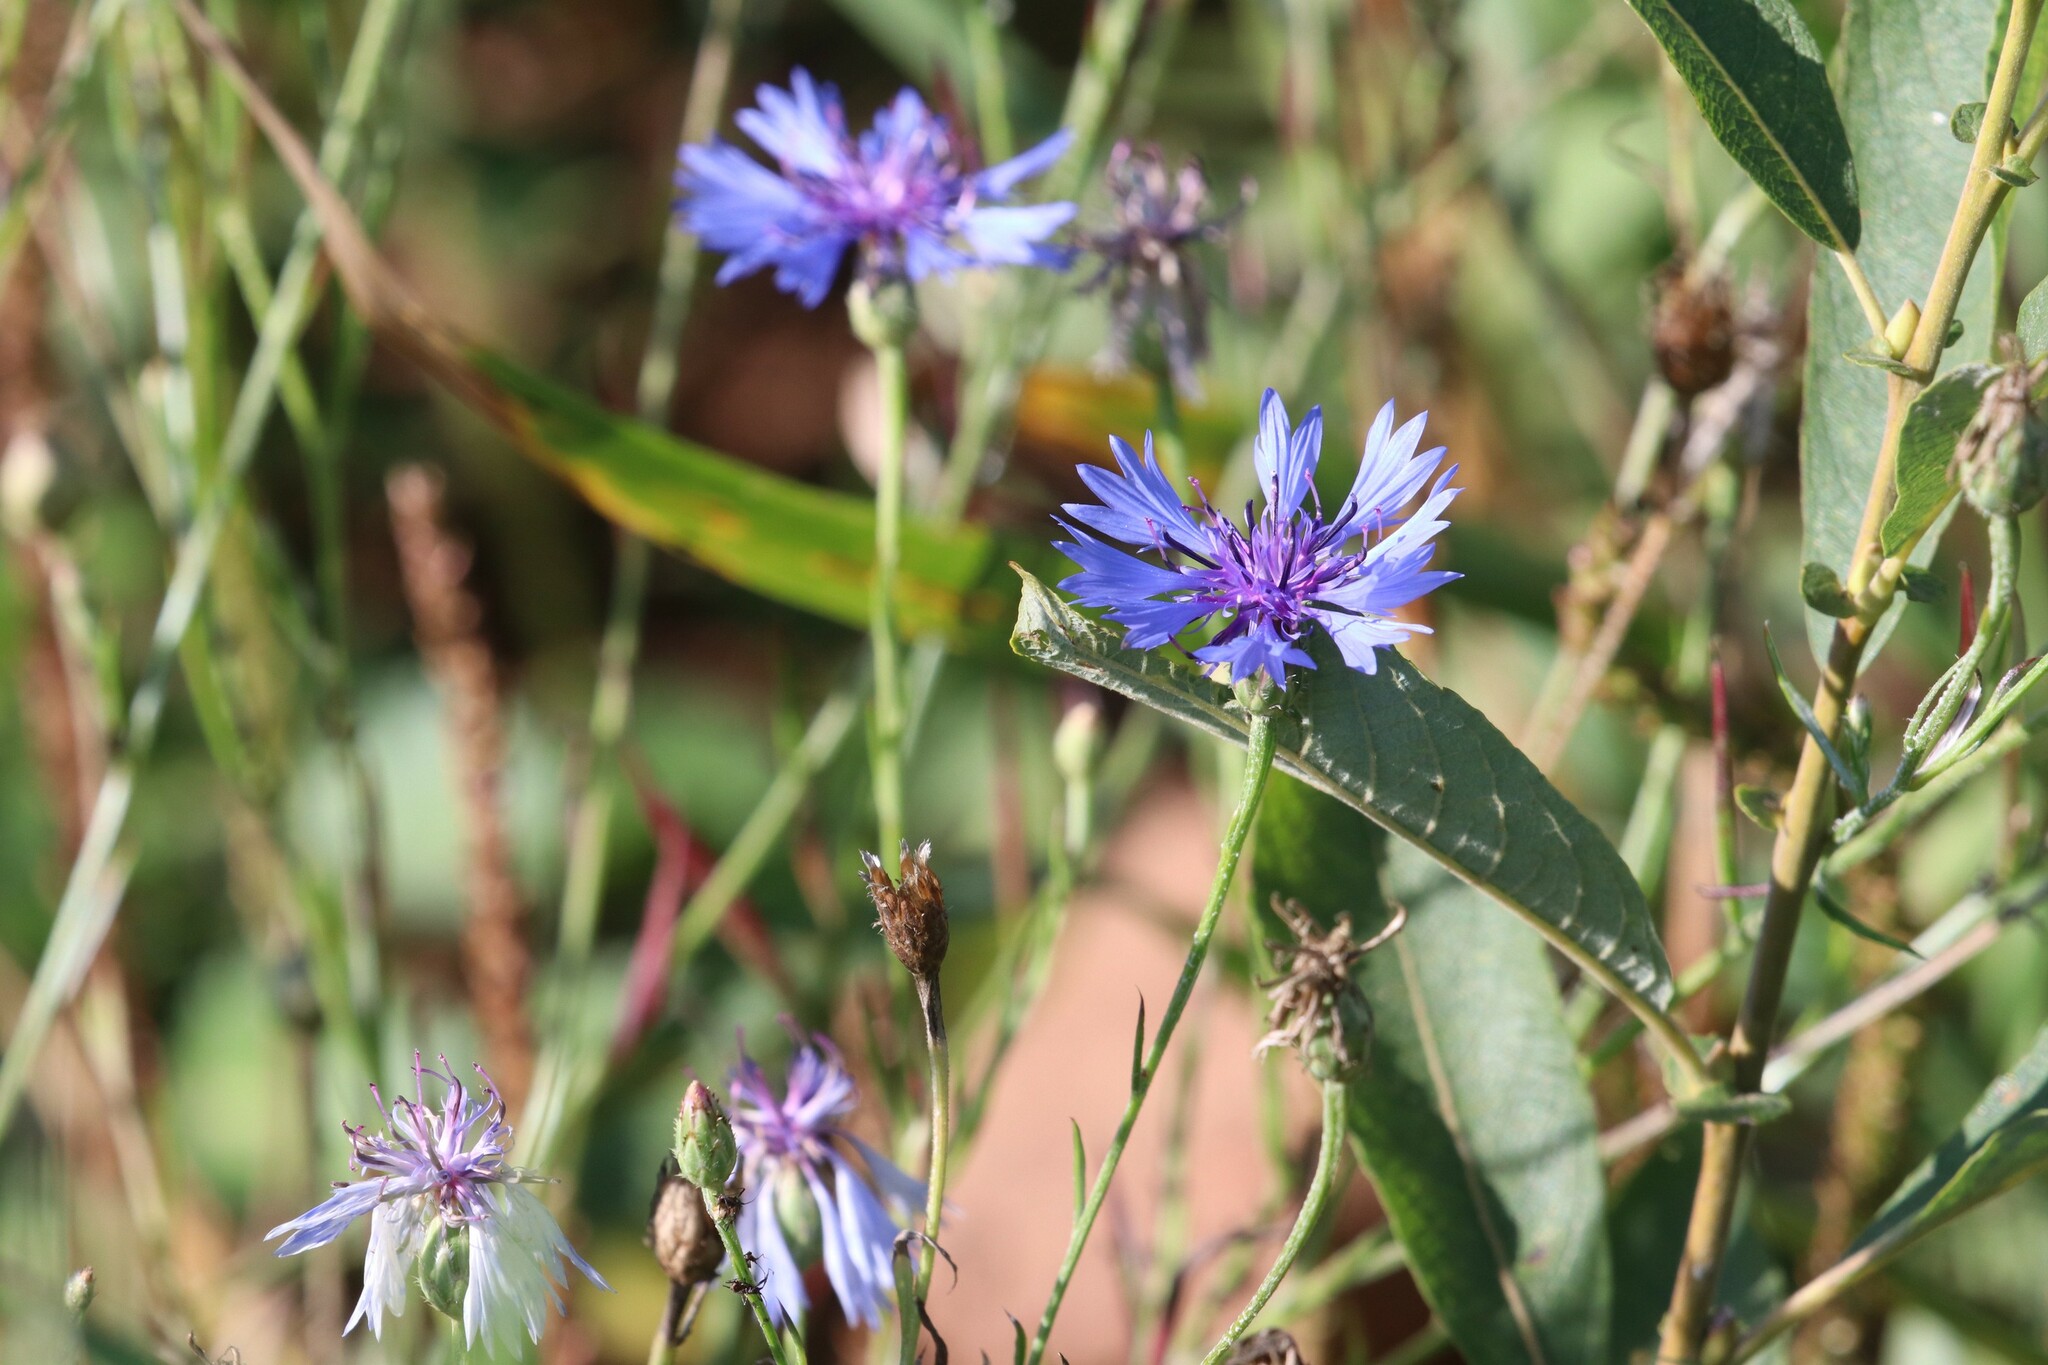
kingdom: Plantae
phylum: Tracheophyta
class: Magnoliopsida
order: Asterales
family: Asteraceae
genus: Centaurea
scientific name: Centaurea cyanus
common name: Cornflower
